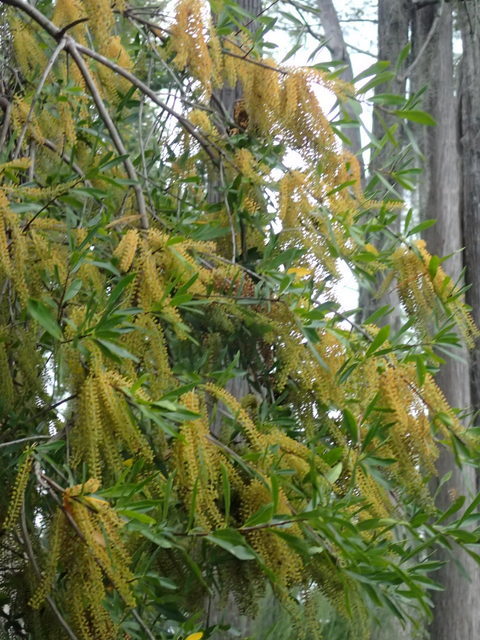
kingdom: Plantae
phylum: Tracheophyta
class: Magnoliopsida
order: Ericales
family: Cyrillaceae
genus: Cyrilla
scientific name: Cyrilla racemiflora
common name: Black titi
